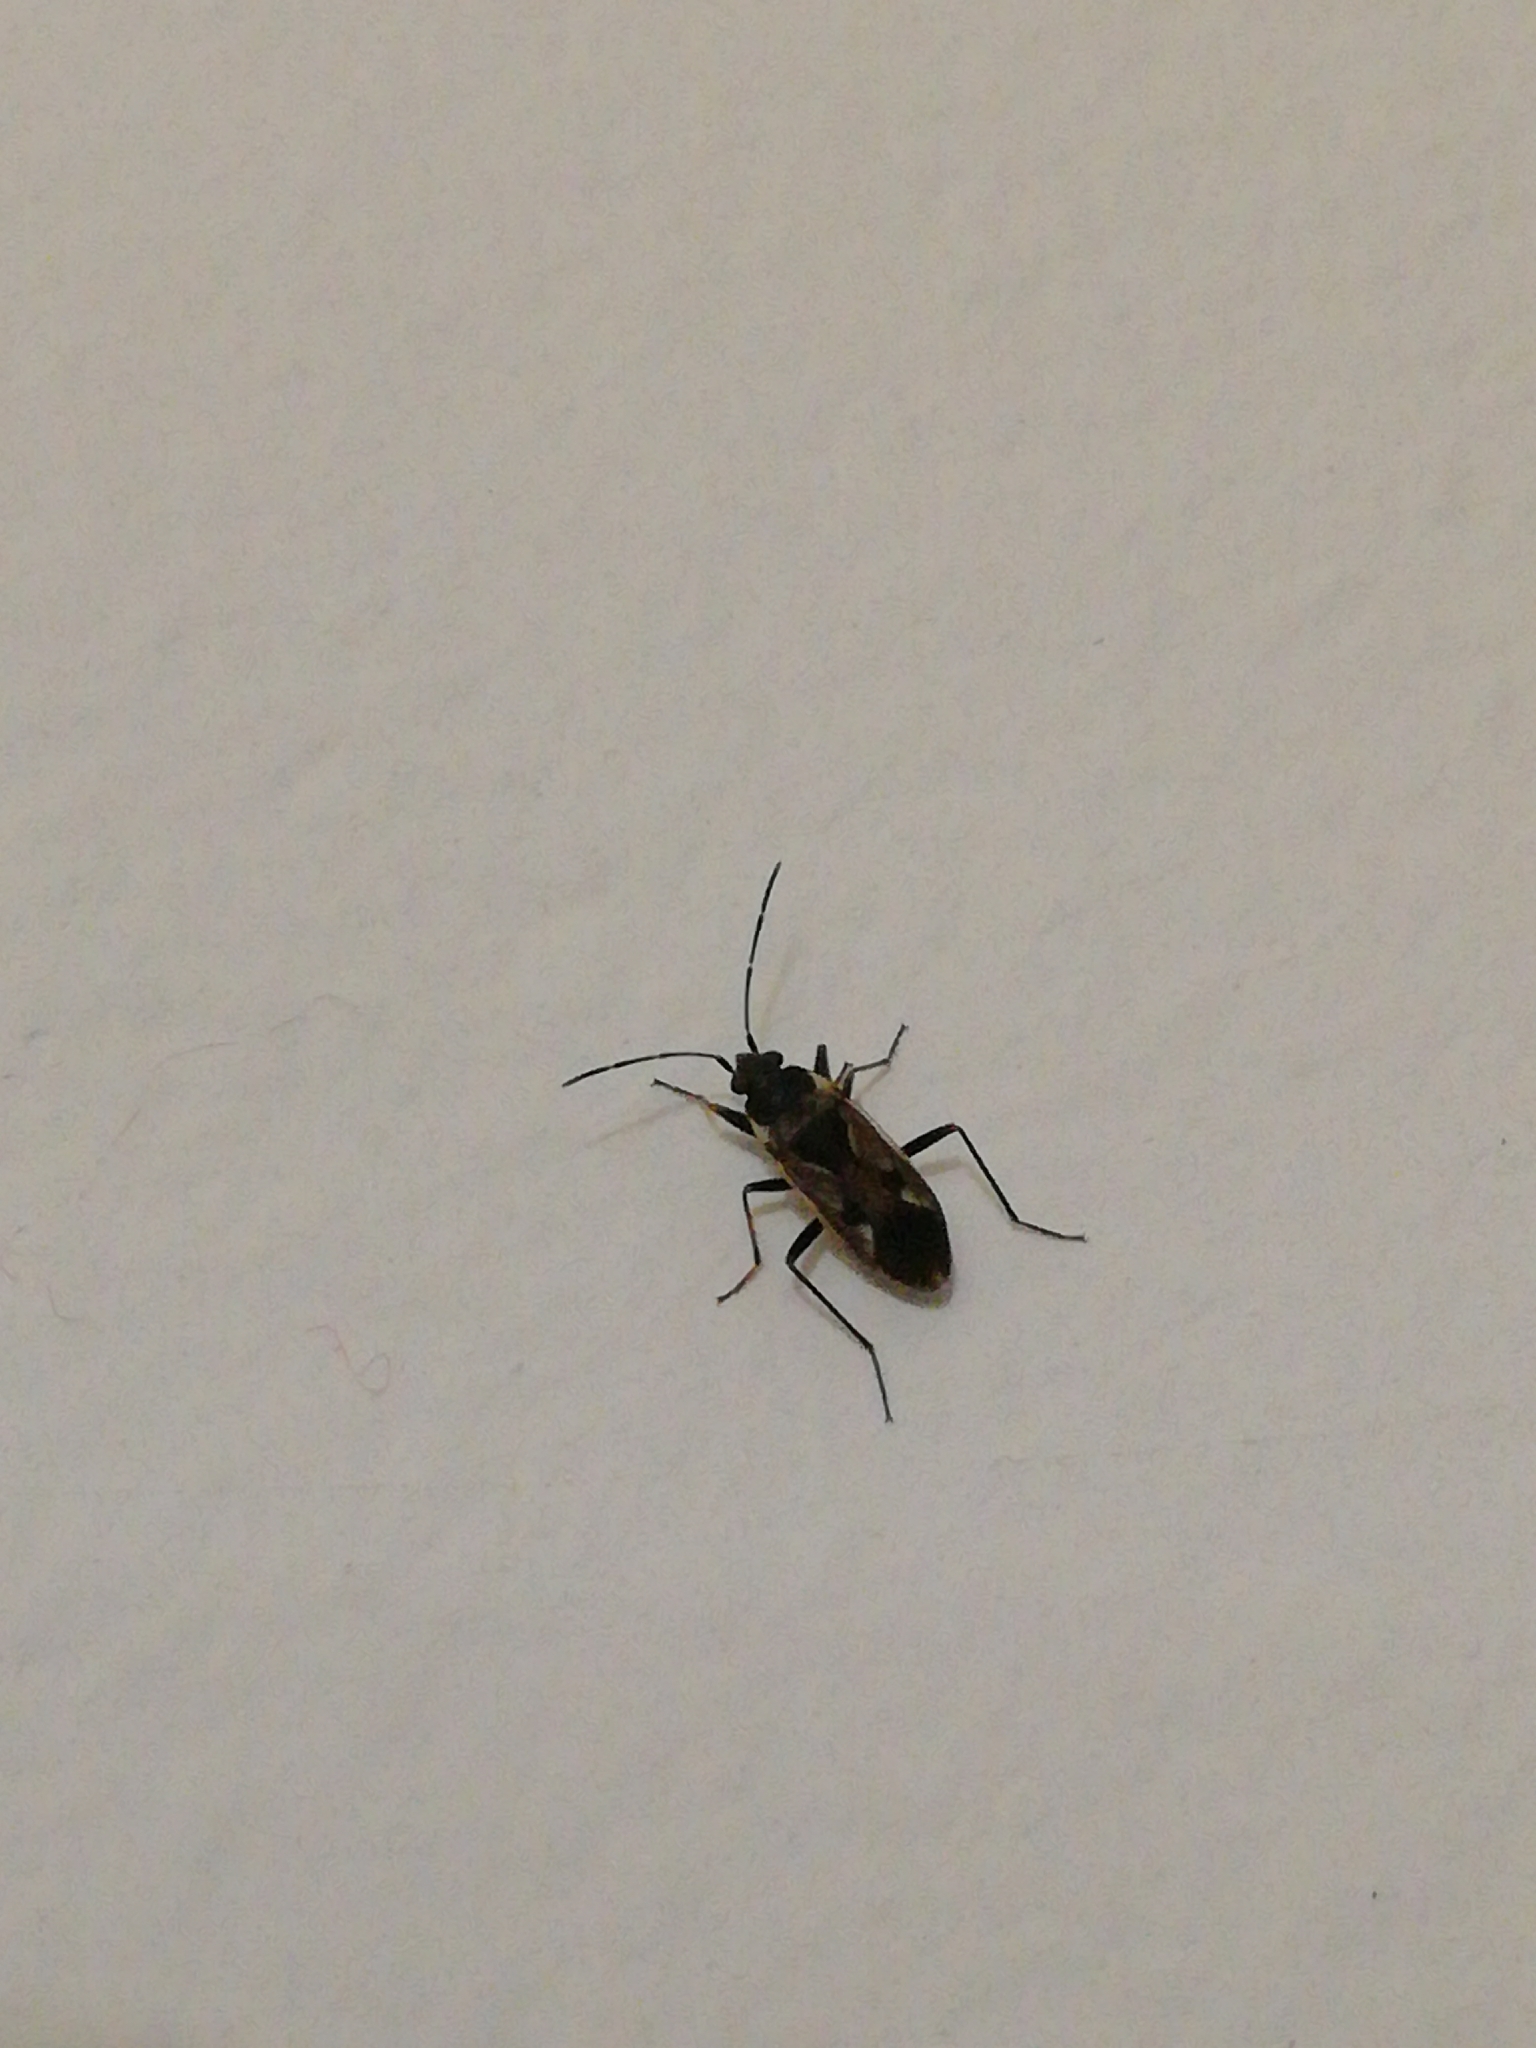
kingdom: Animalia
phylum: Arthropoda
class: Insecta
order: Hemiptera
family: Rhyparochromidae
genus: Rhyparochromus
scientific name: Rhyparochromus vulgaris
